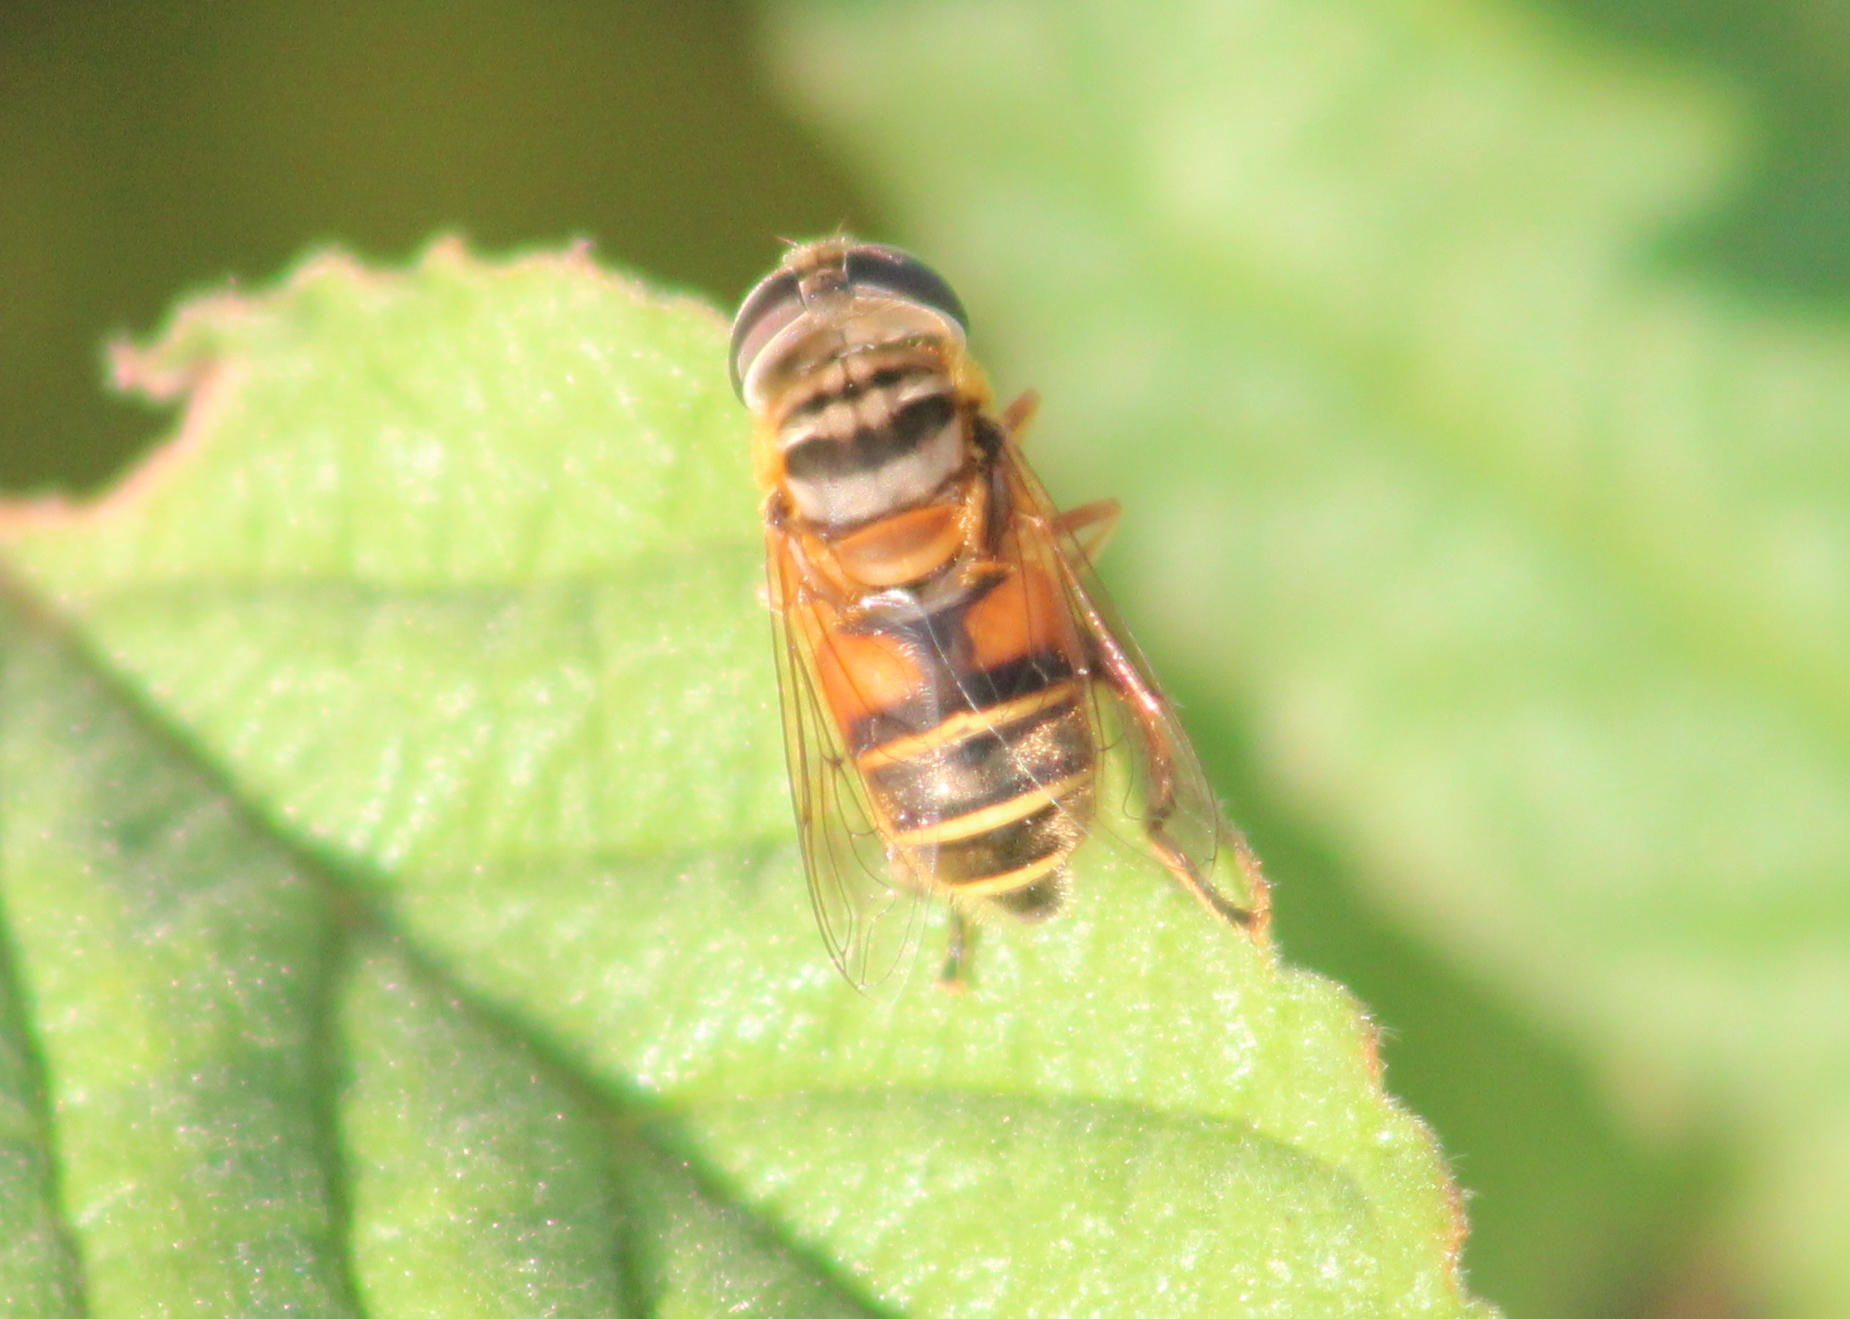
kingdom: Animalia
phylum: Arthropoda
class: Insecta
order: Diptera
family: Syrphidae
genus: Palpada
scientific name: Palpada vinetorum
